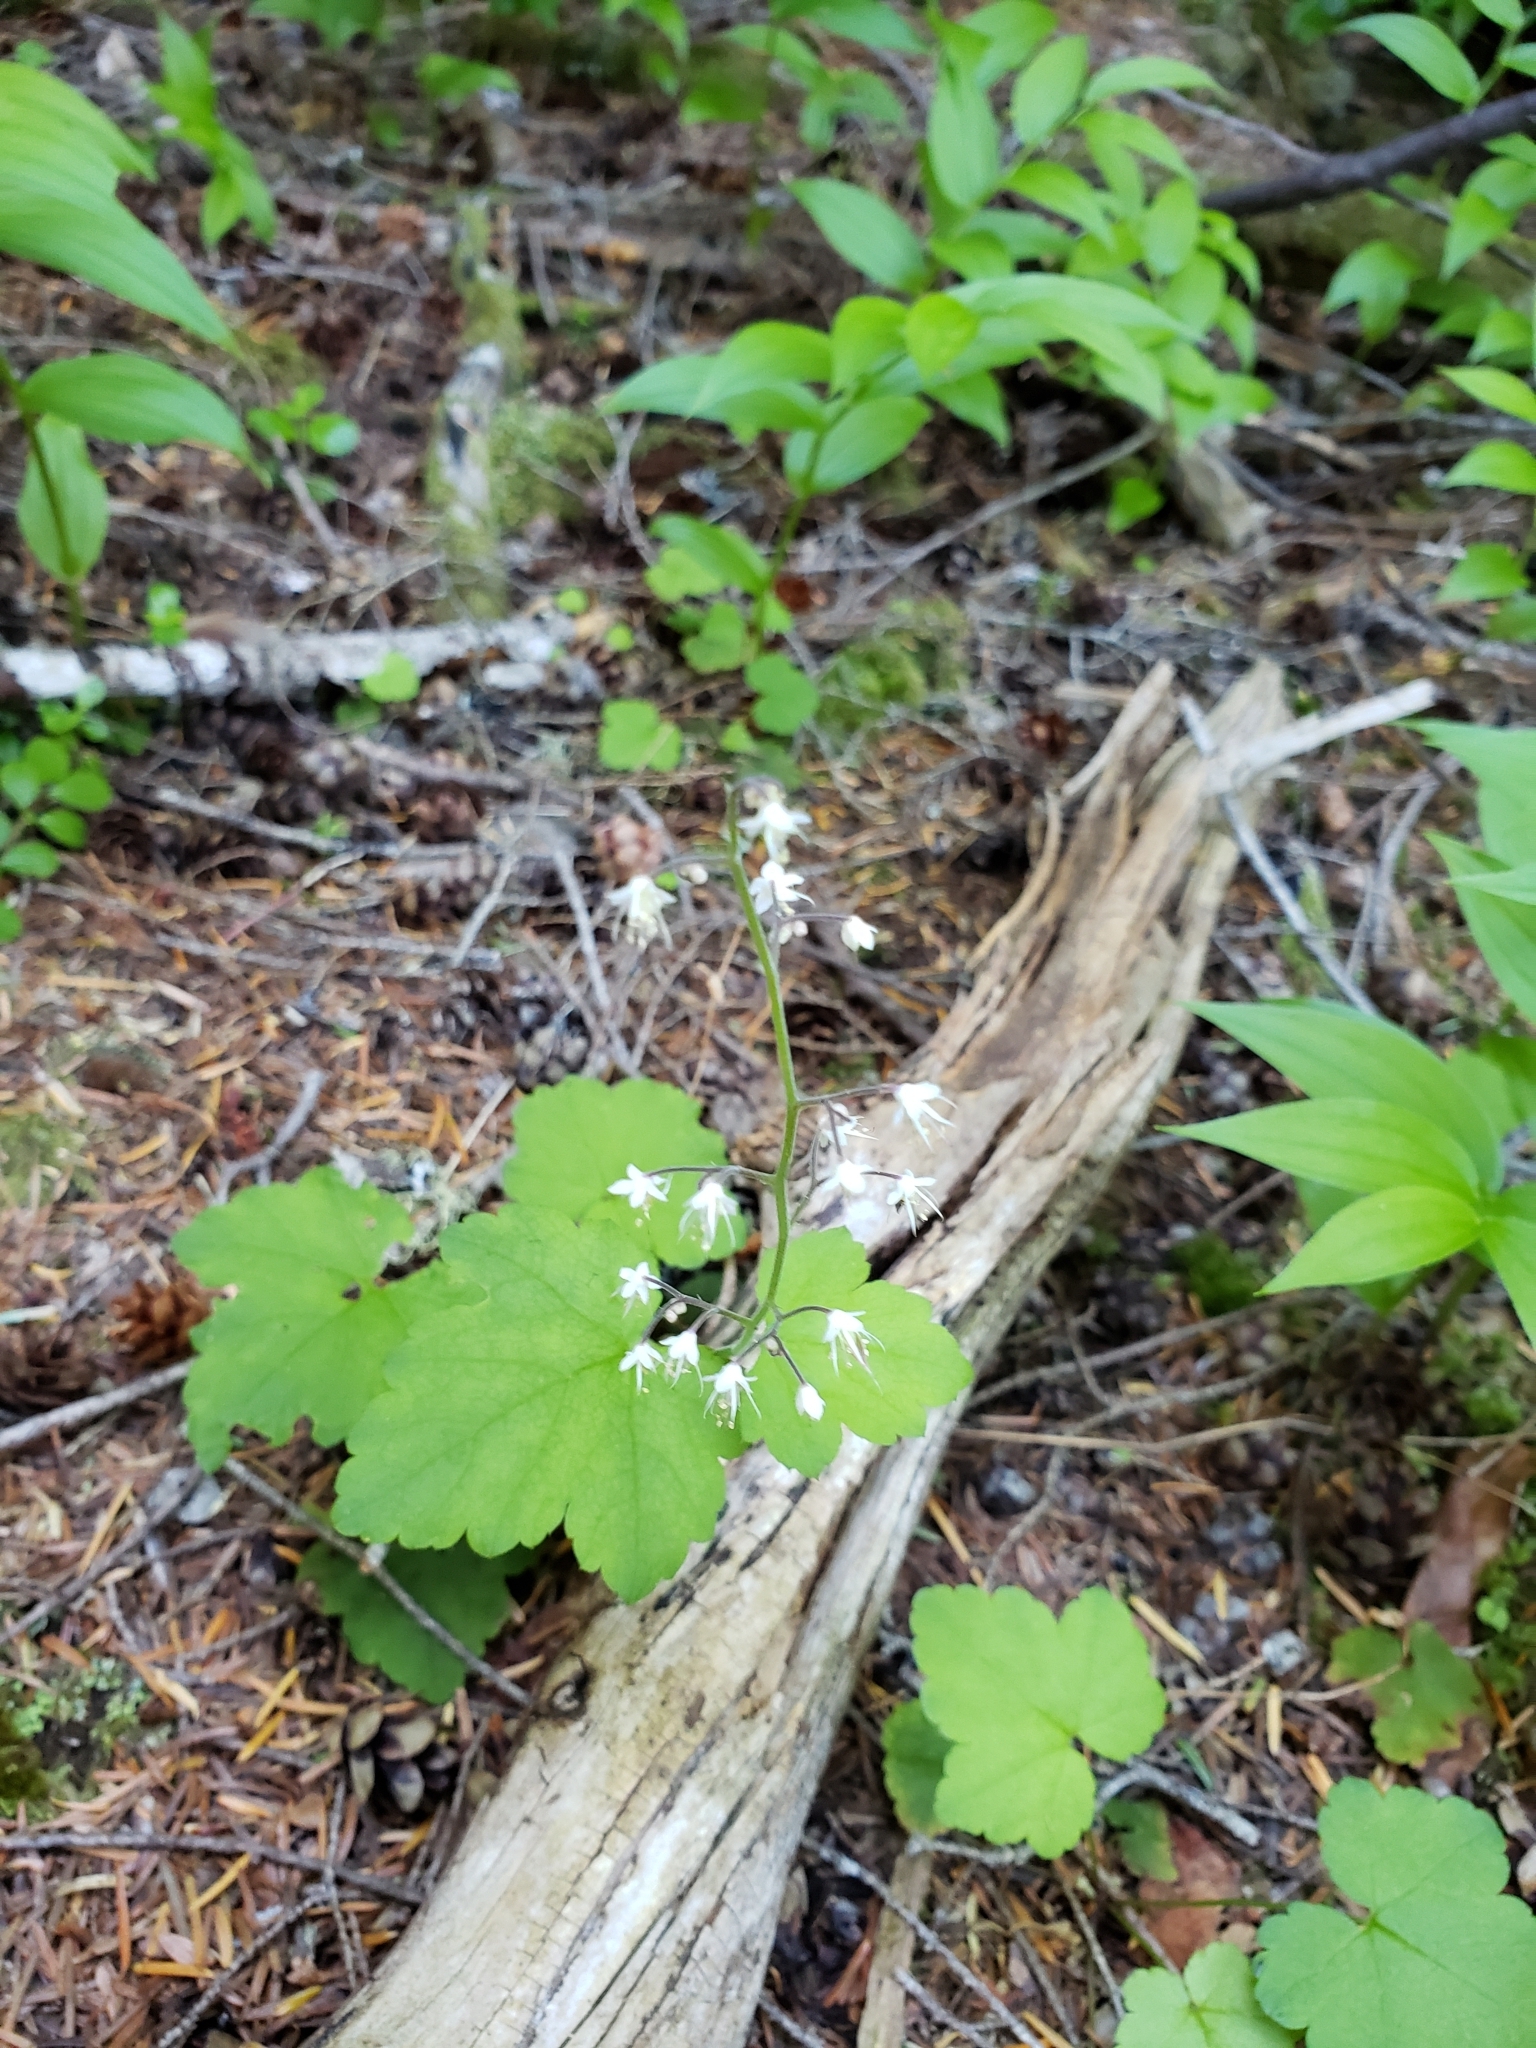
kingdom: Plantae
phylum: Tracheophyta
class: Magnoliopsida
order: Saxifragales
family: Saxifragaceae
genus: Tiarella
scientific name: Tiarella trifoliata
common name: Sugar-scoop
